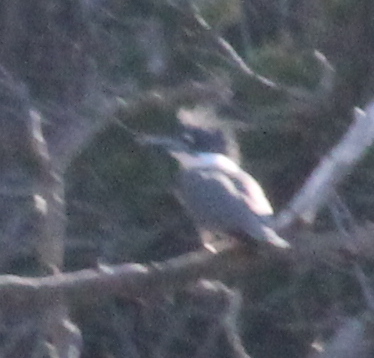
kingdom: Animalia
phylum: Chordata
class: Aves
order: Coraciiformes
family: Alcedinidae
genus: Megaceryle
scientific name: Megaceryle alcyon
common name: Belted kingfisher
